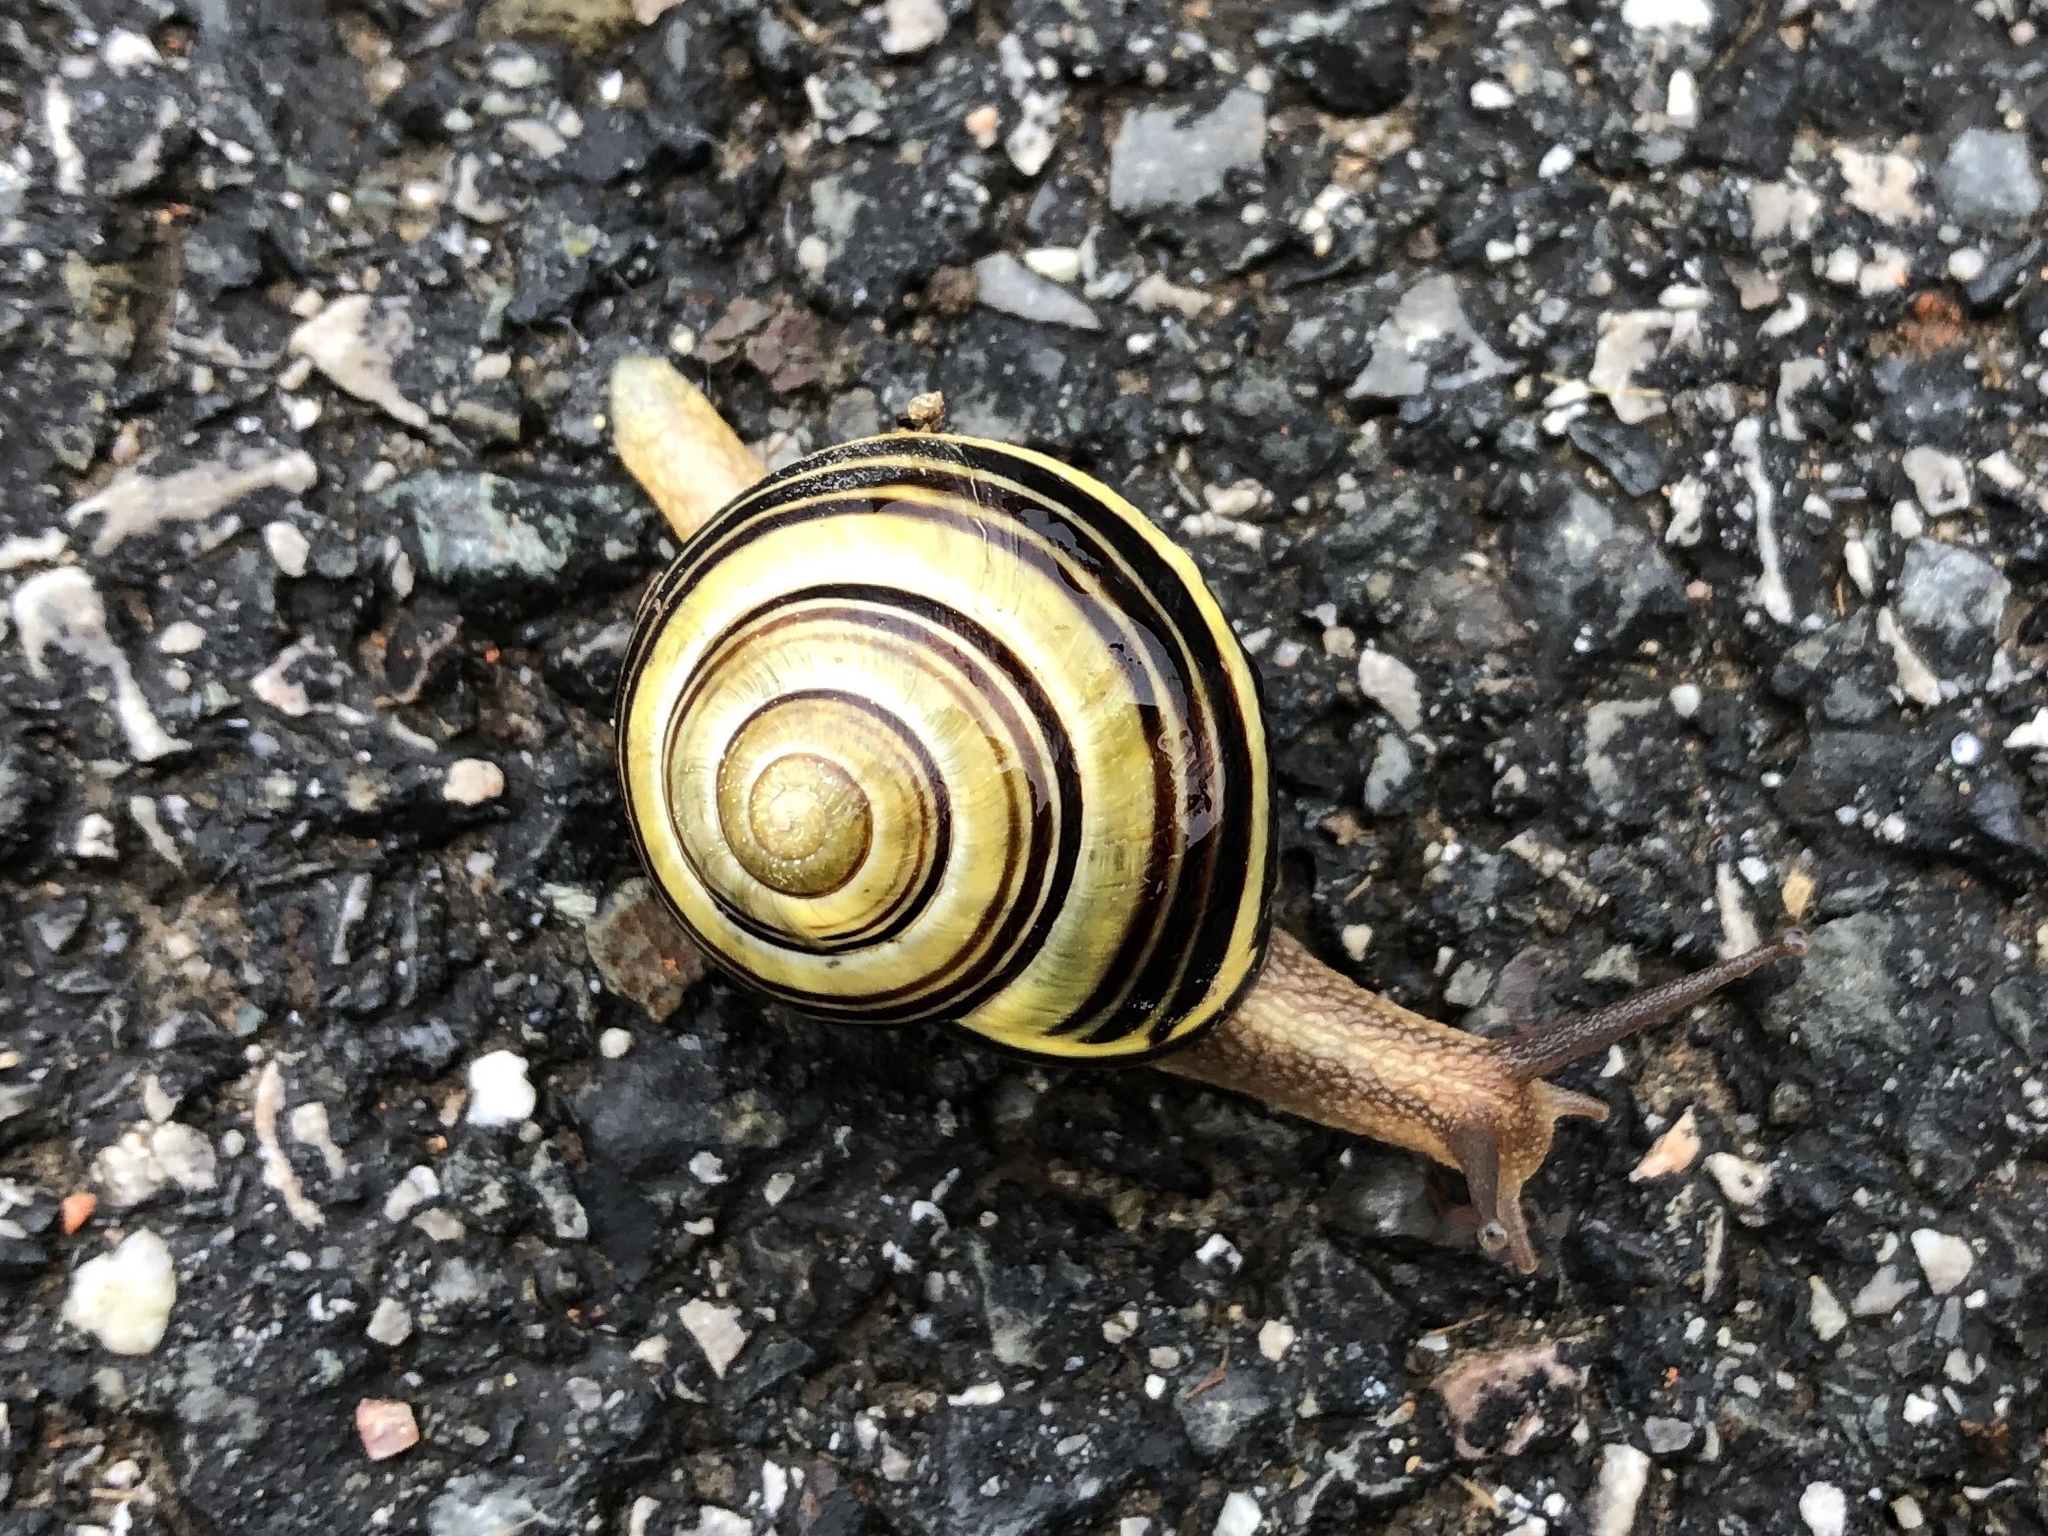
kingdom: Animalia
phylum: Mollusca
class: Gastropoda
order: Stylommatophora
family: Helicidae
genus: Cepaea
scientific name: Cepaea nemoralis
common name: Grovesnail
